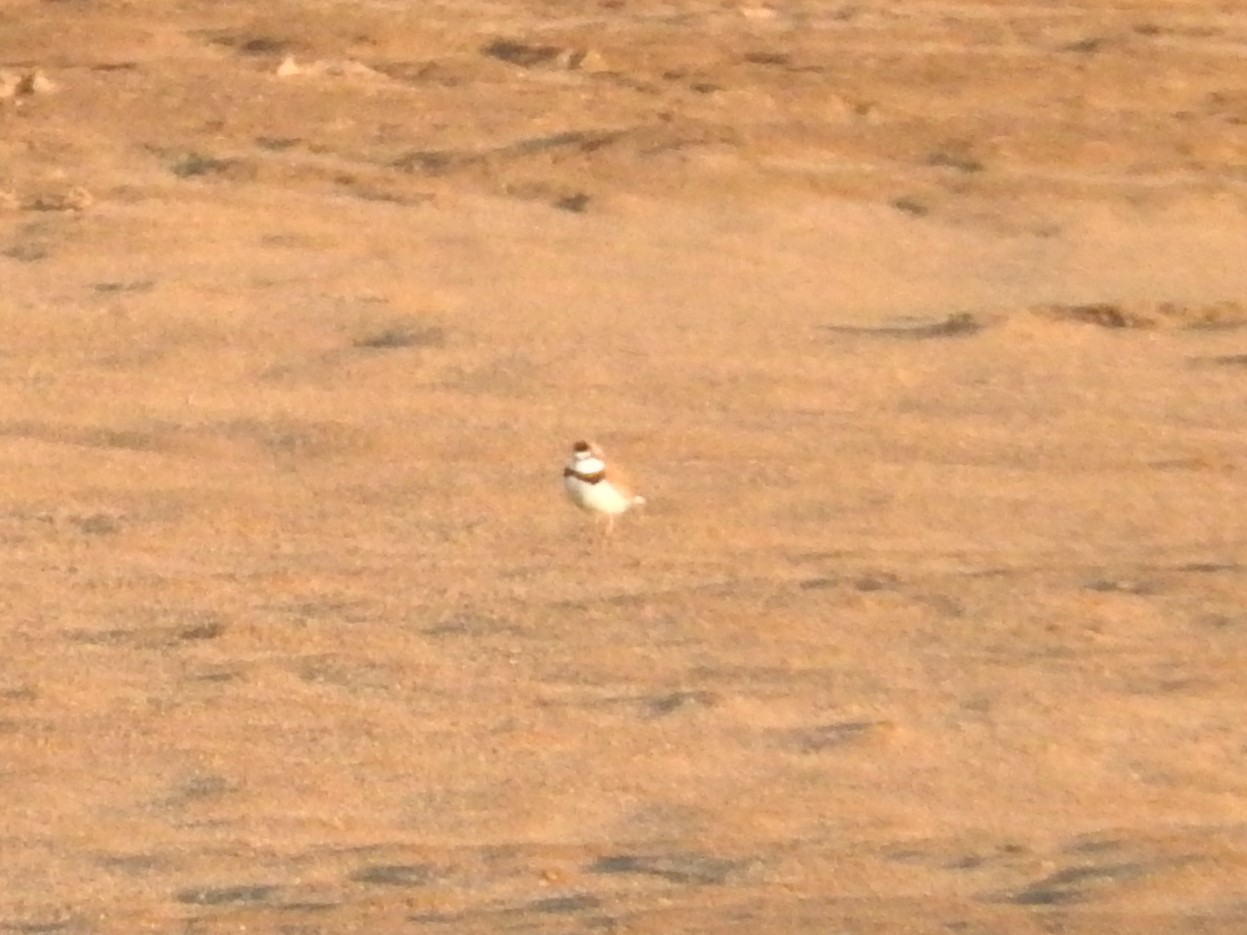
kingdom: Animalia
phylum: Chordata
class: Aves
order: Charadriiformes
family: Charadriidae
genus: Anarhynchus
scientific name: Anarhynchus
